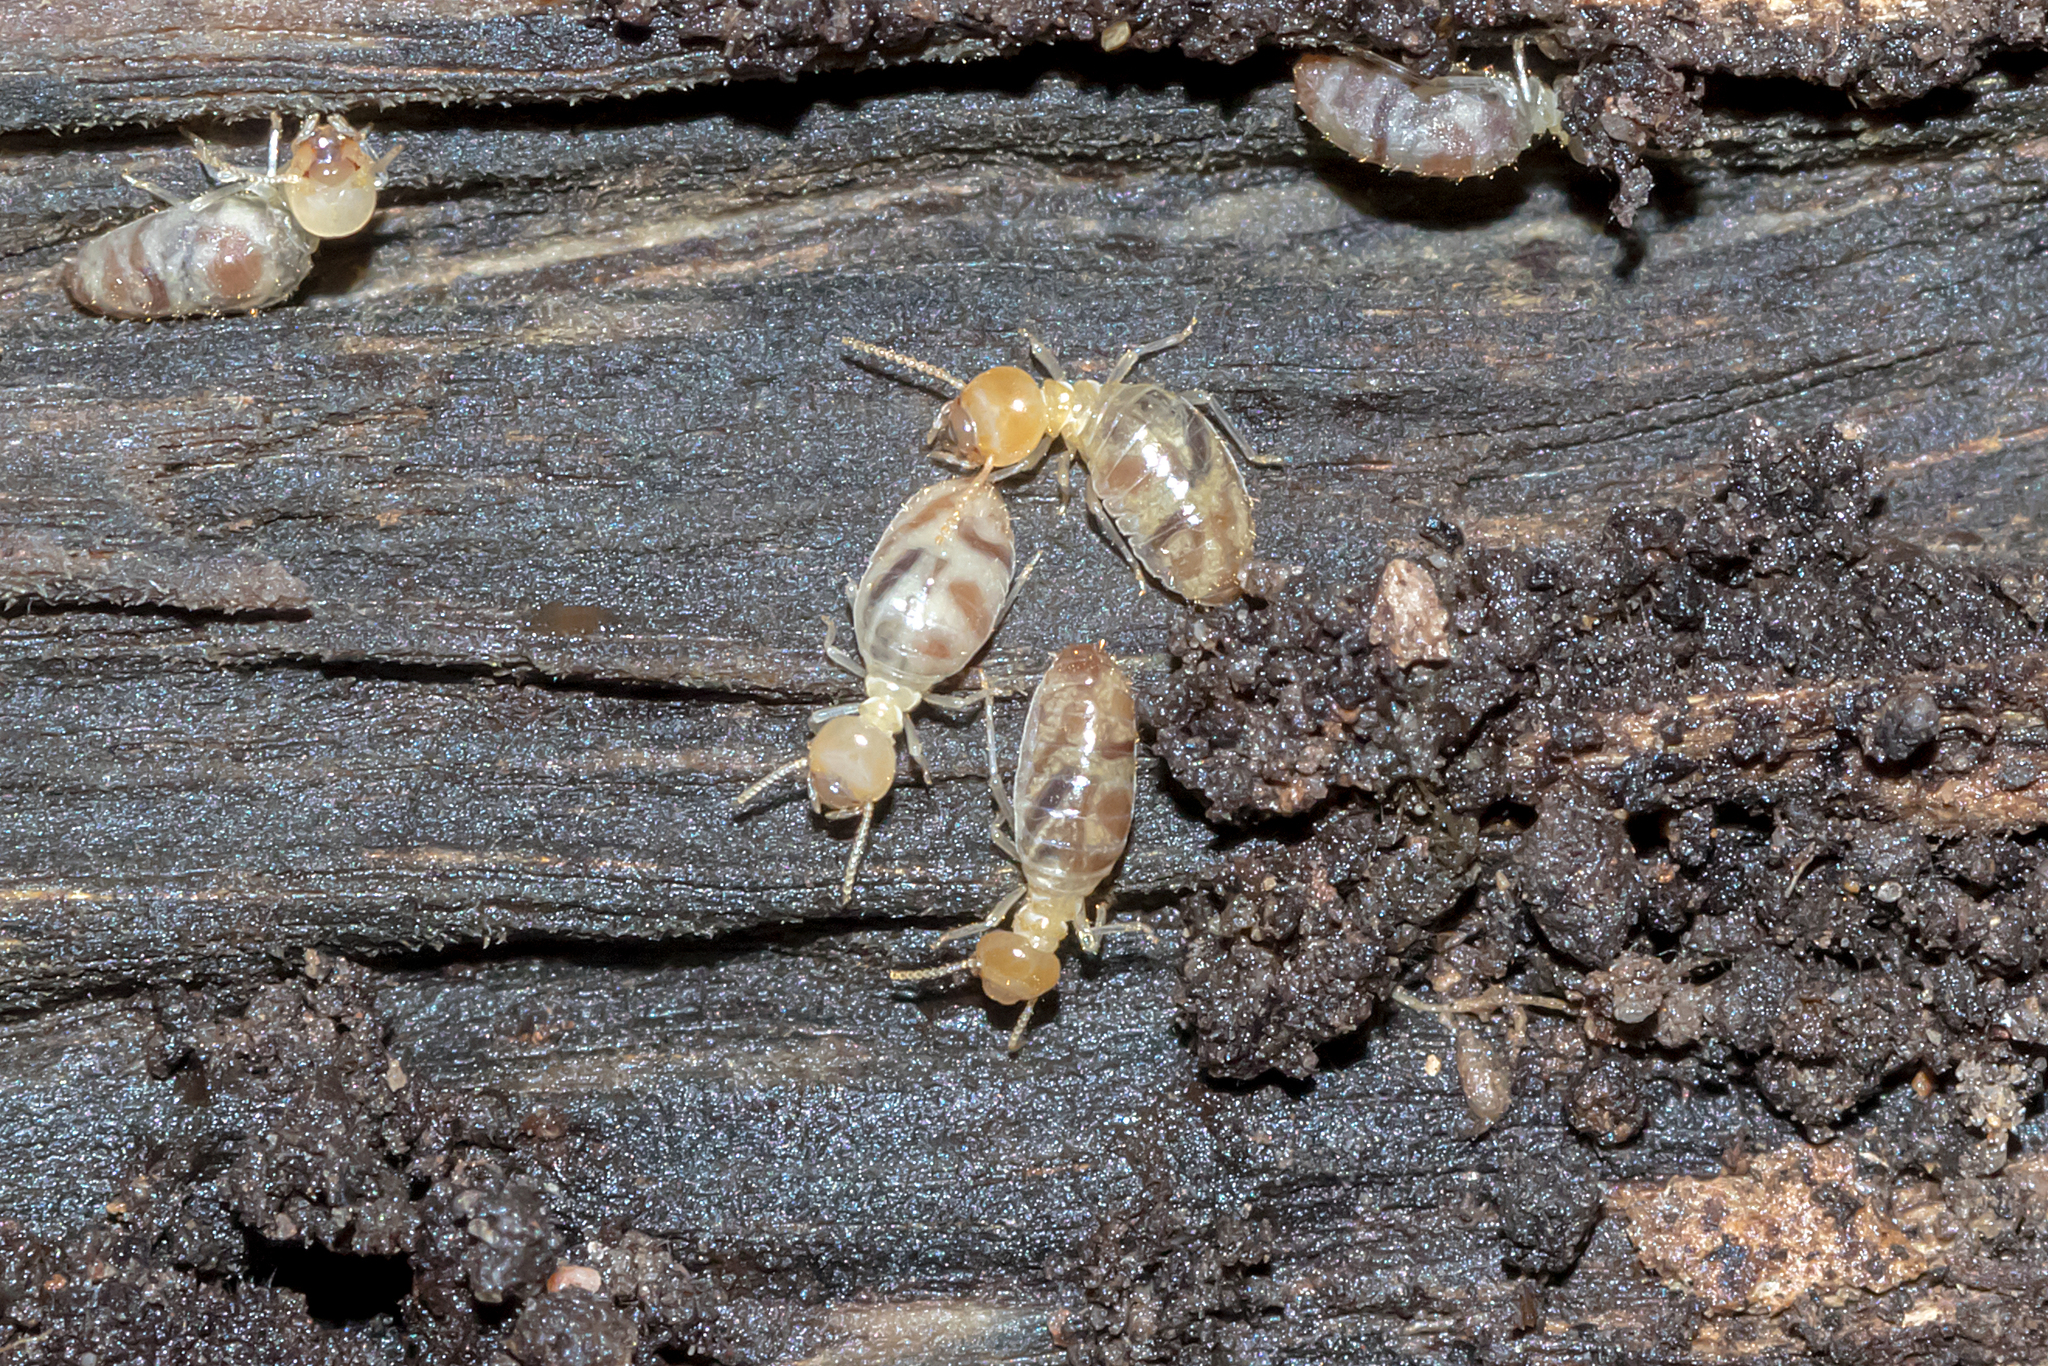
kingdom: Animalia
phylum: Arthropoda
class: Insecta
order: Blattodea
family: Termitidae
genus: Nasutitermes
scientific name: Nasutitermes dixoni
